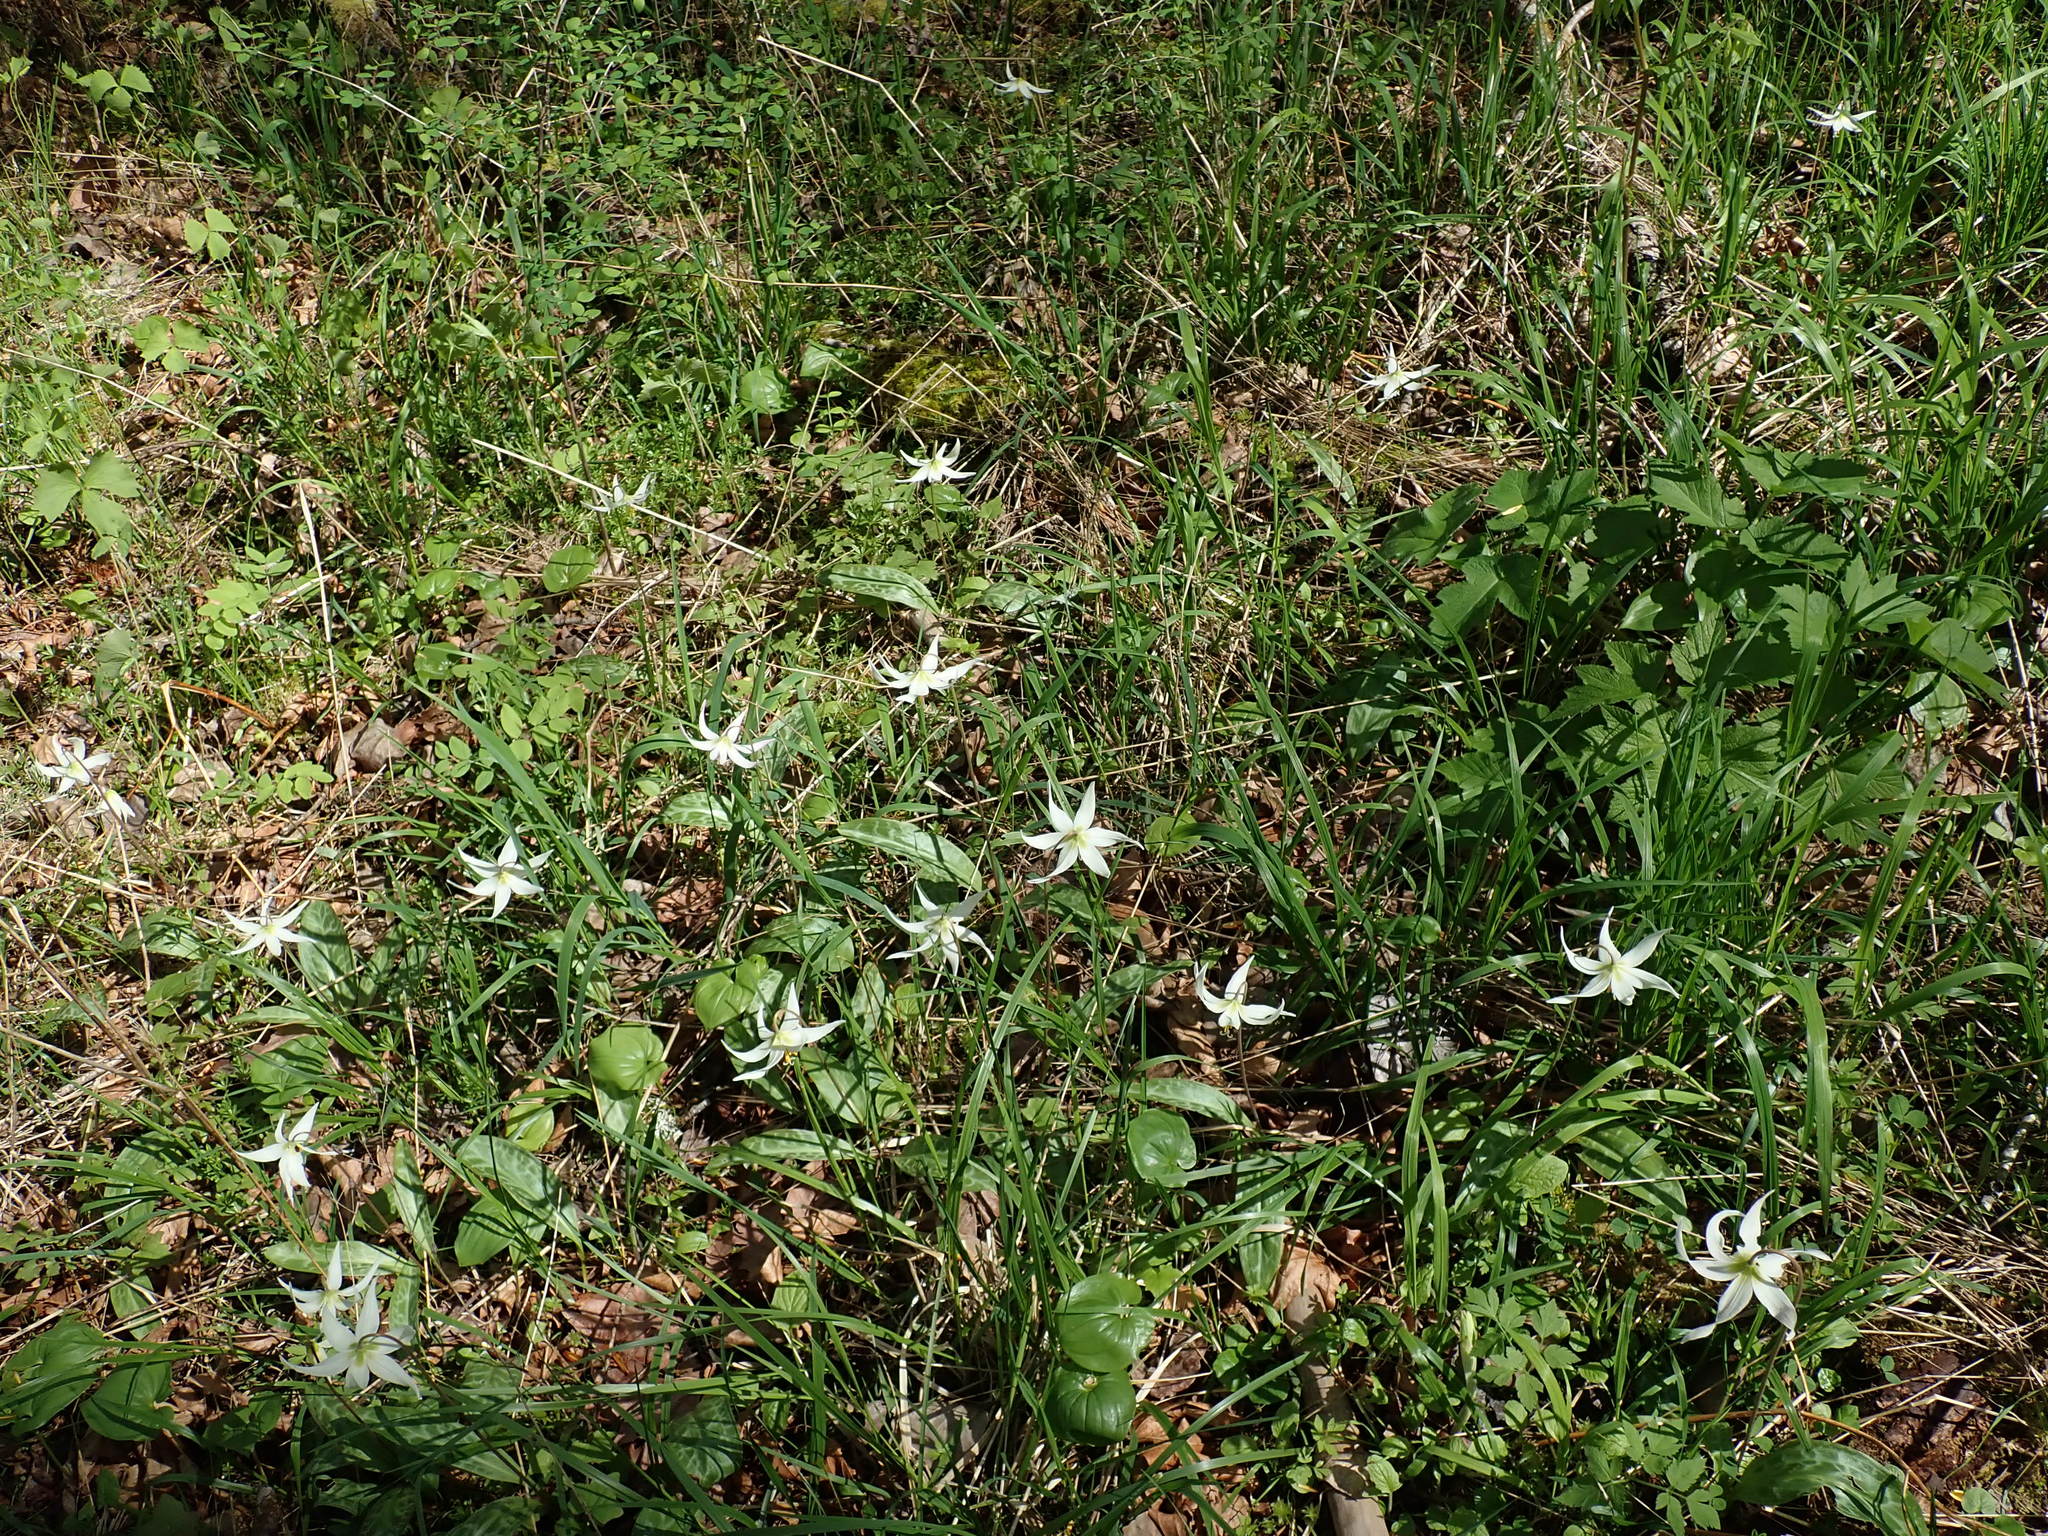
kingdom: Plantae
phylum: Tracheophyta
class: Liliopsida
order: Liliales
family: Liliaceae
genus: Erythronium
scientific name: Erythronium oregonum
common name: Giant adder's-tongue
